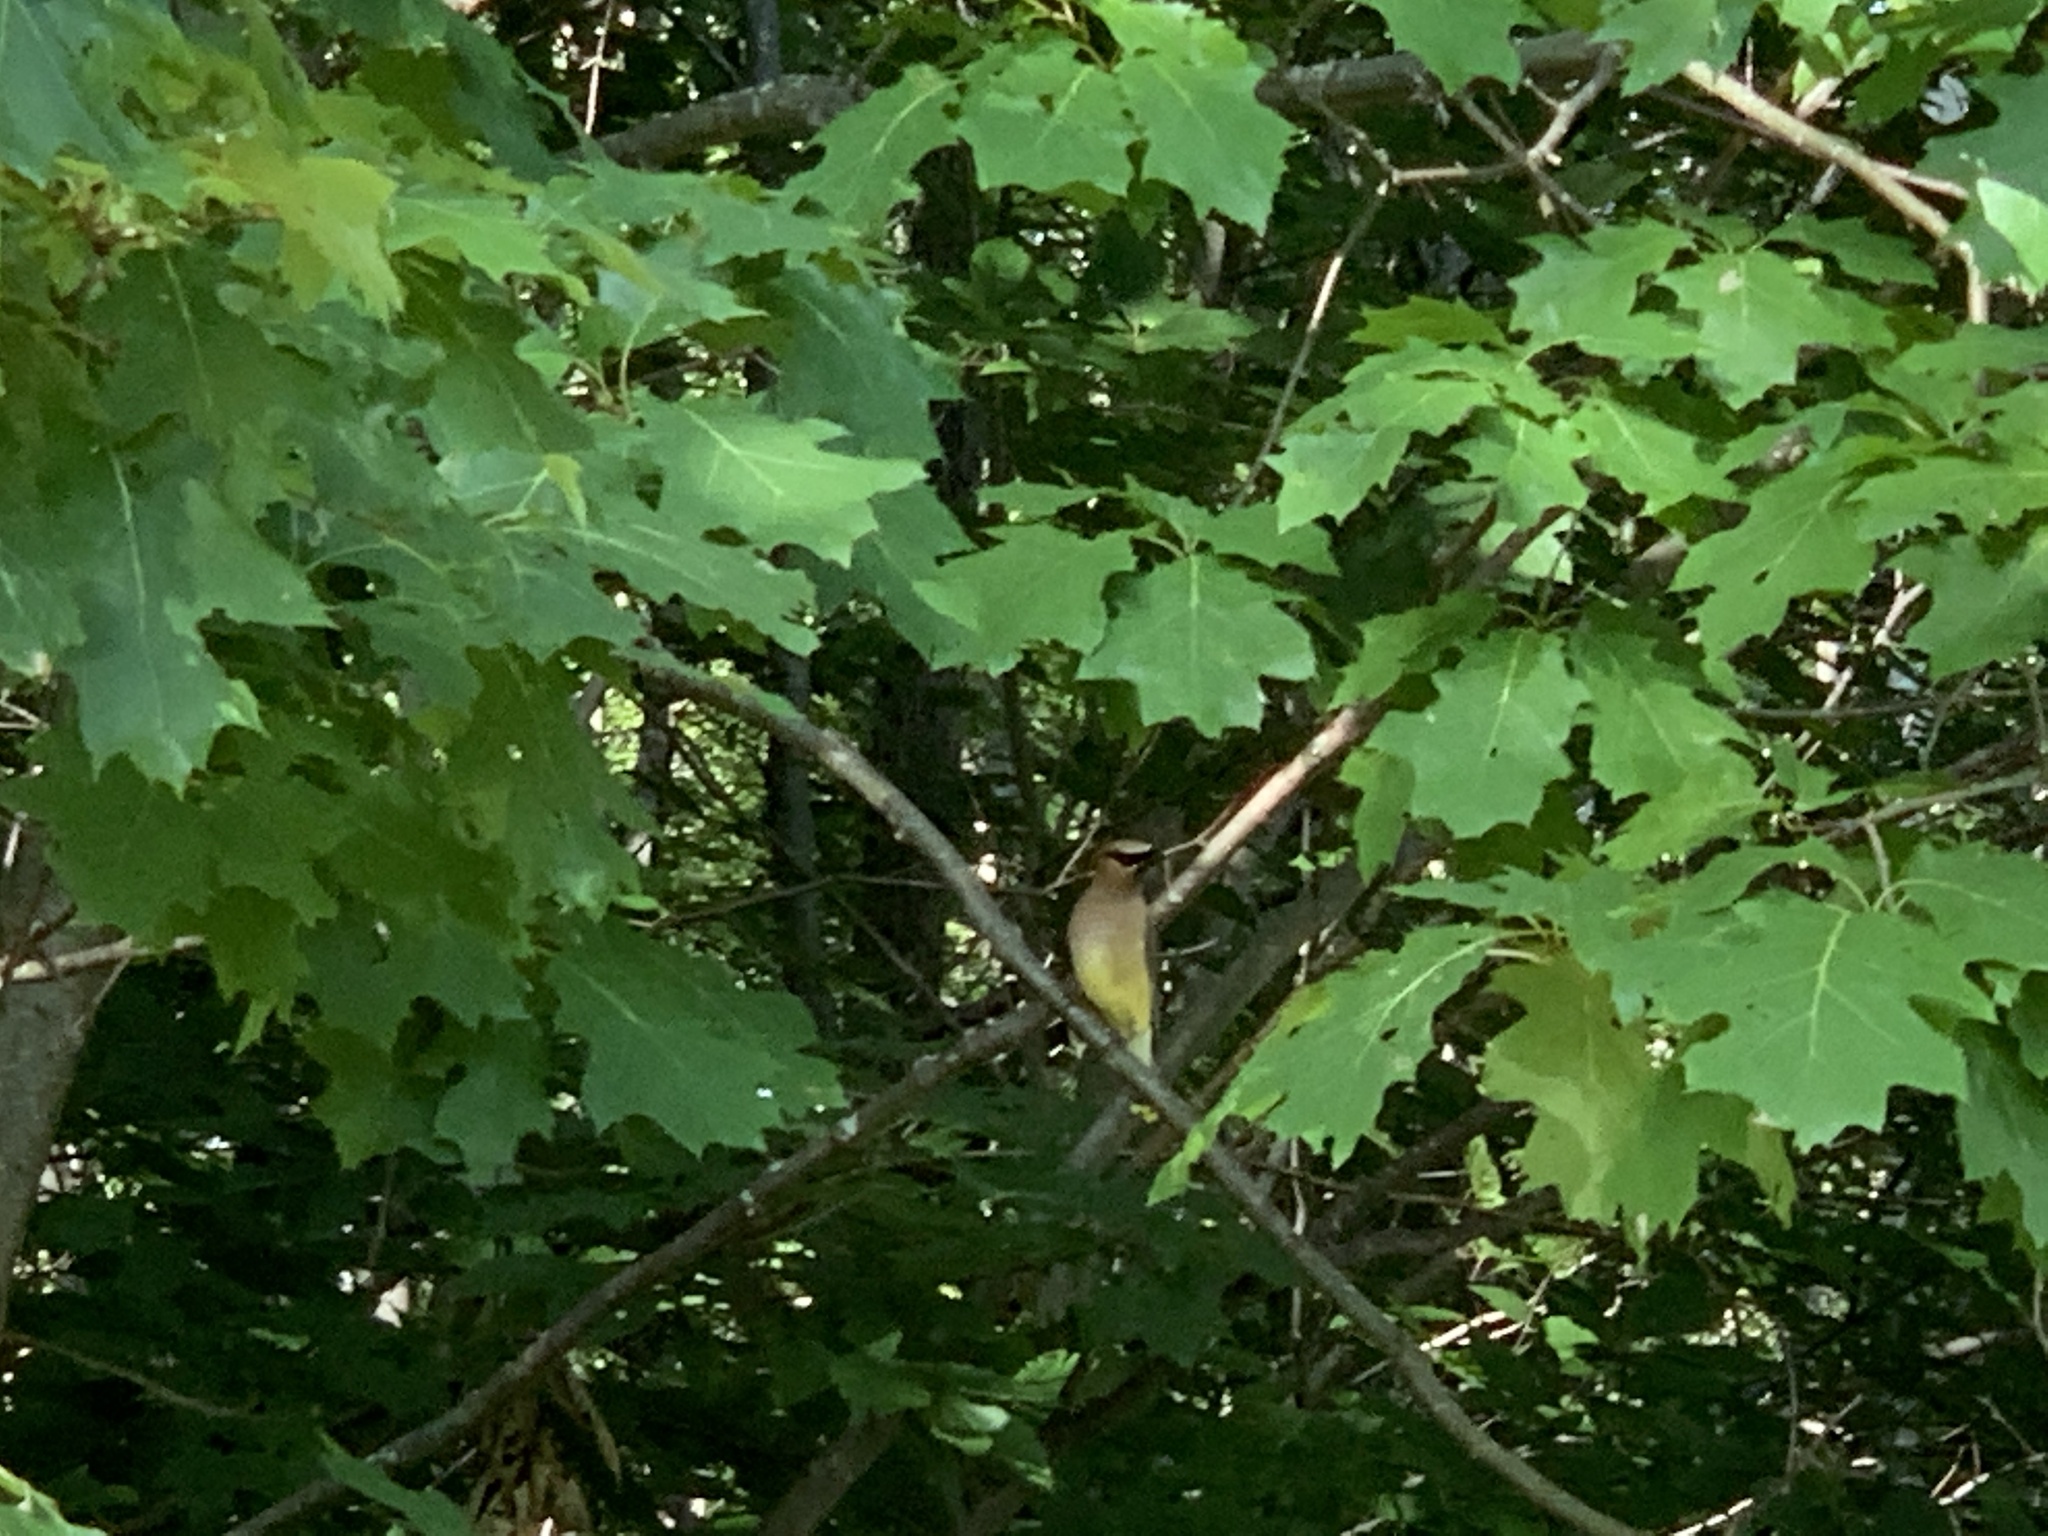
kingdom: Animalia
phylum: Chordata
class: Aves
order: Passeriformes
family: Bombycillidae
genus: Bombycilla
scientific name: Bombycilla cedrorum
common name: Cedar waxwing
